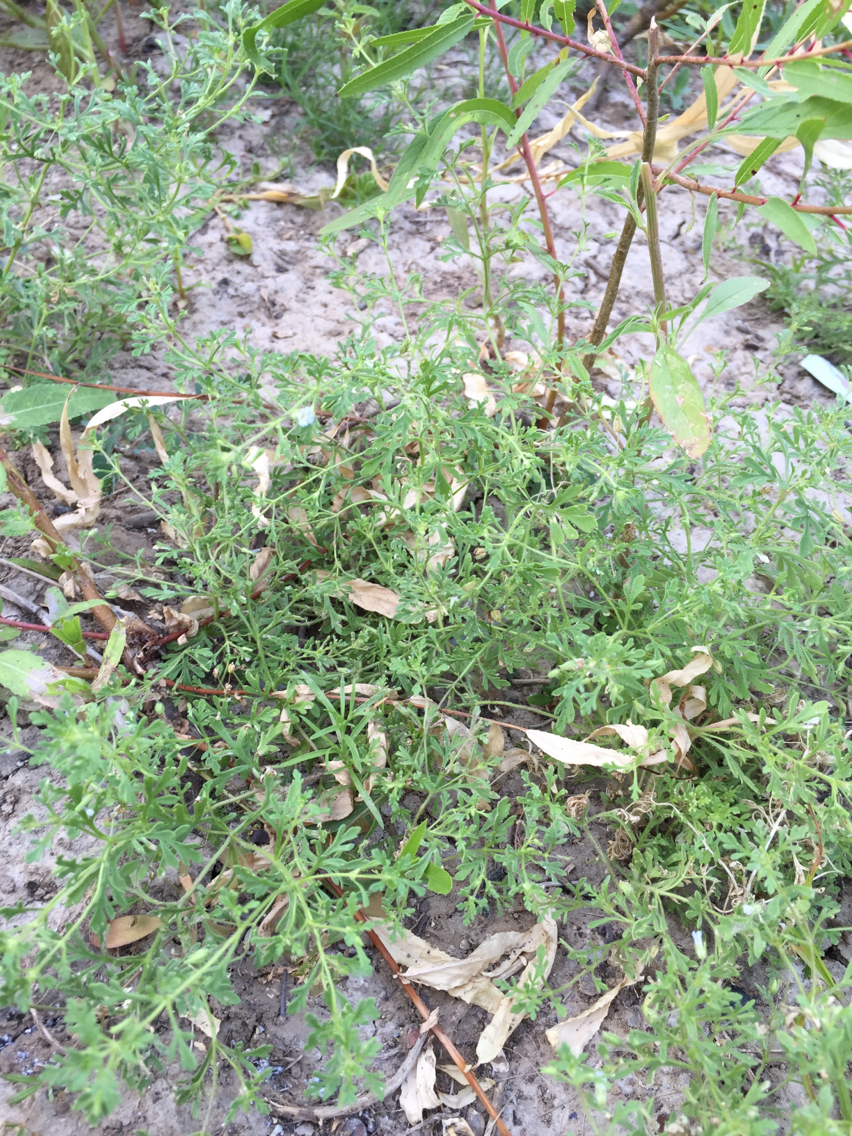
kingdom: Plantae
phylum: Tracheophyta
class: Magnoliopsida
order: Lamiales
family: Plantaginaceae
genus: Leucospora
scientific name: Leucospora multifida
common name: Narrow-leaf paleseed
